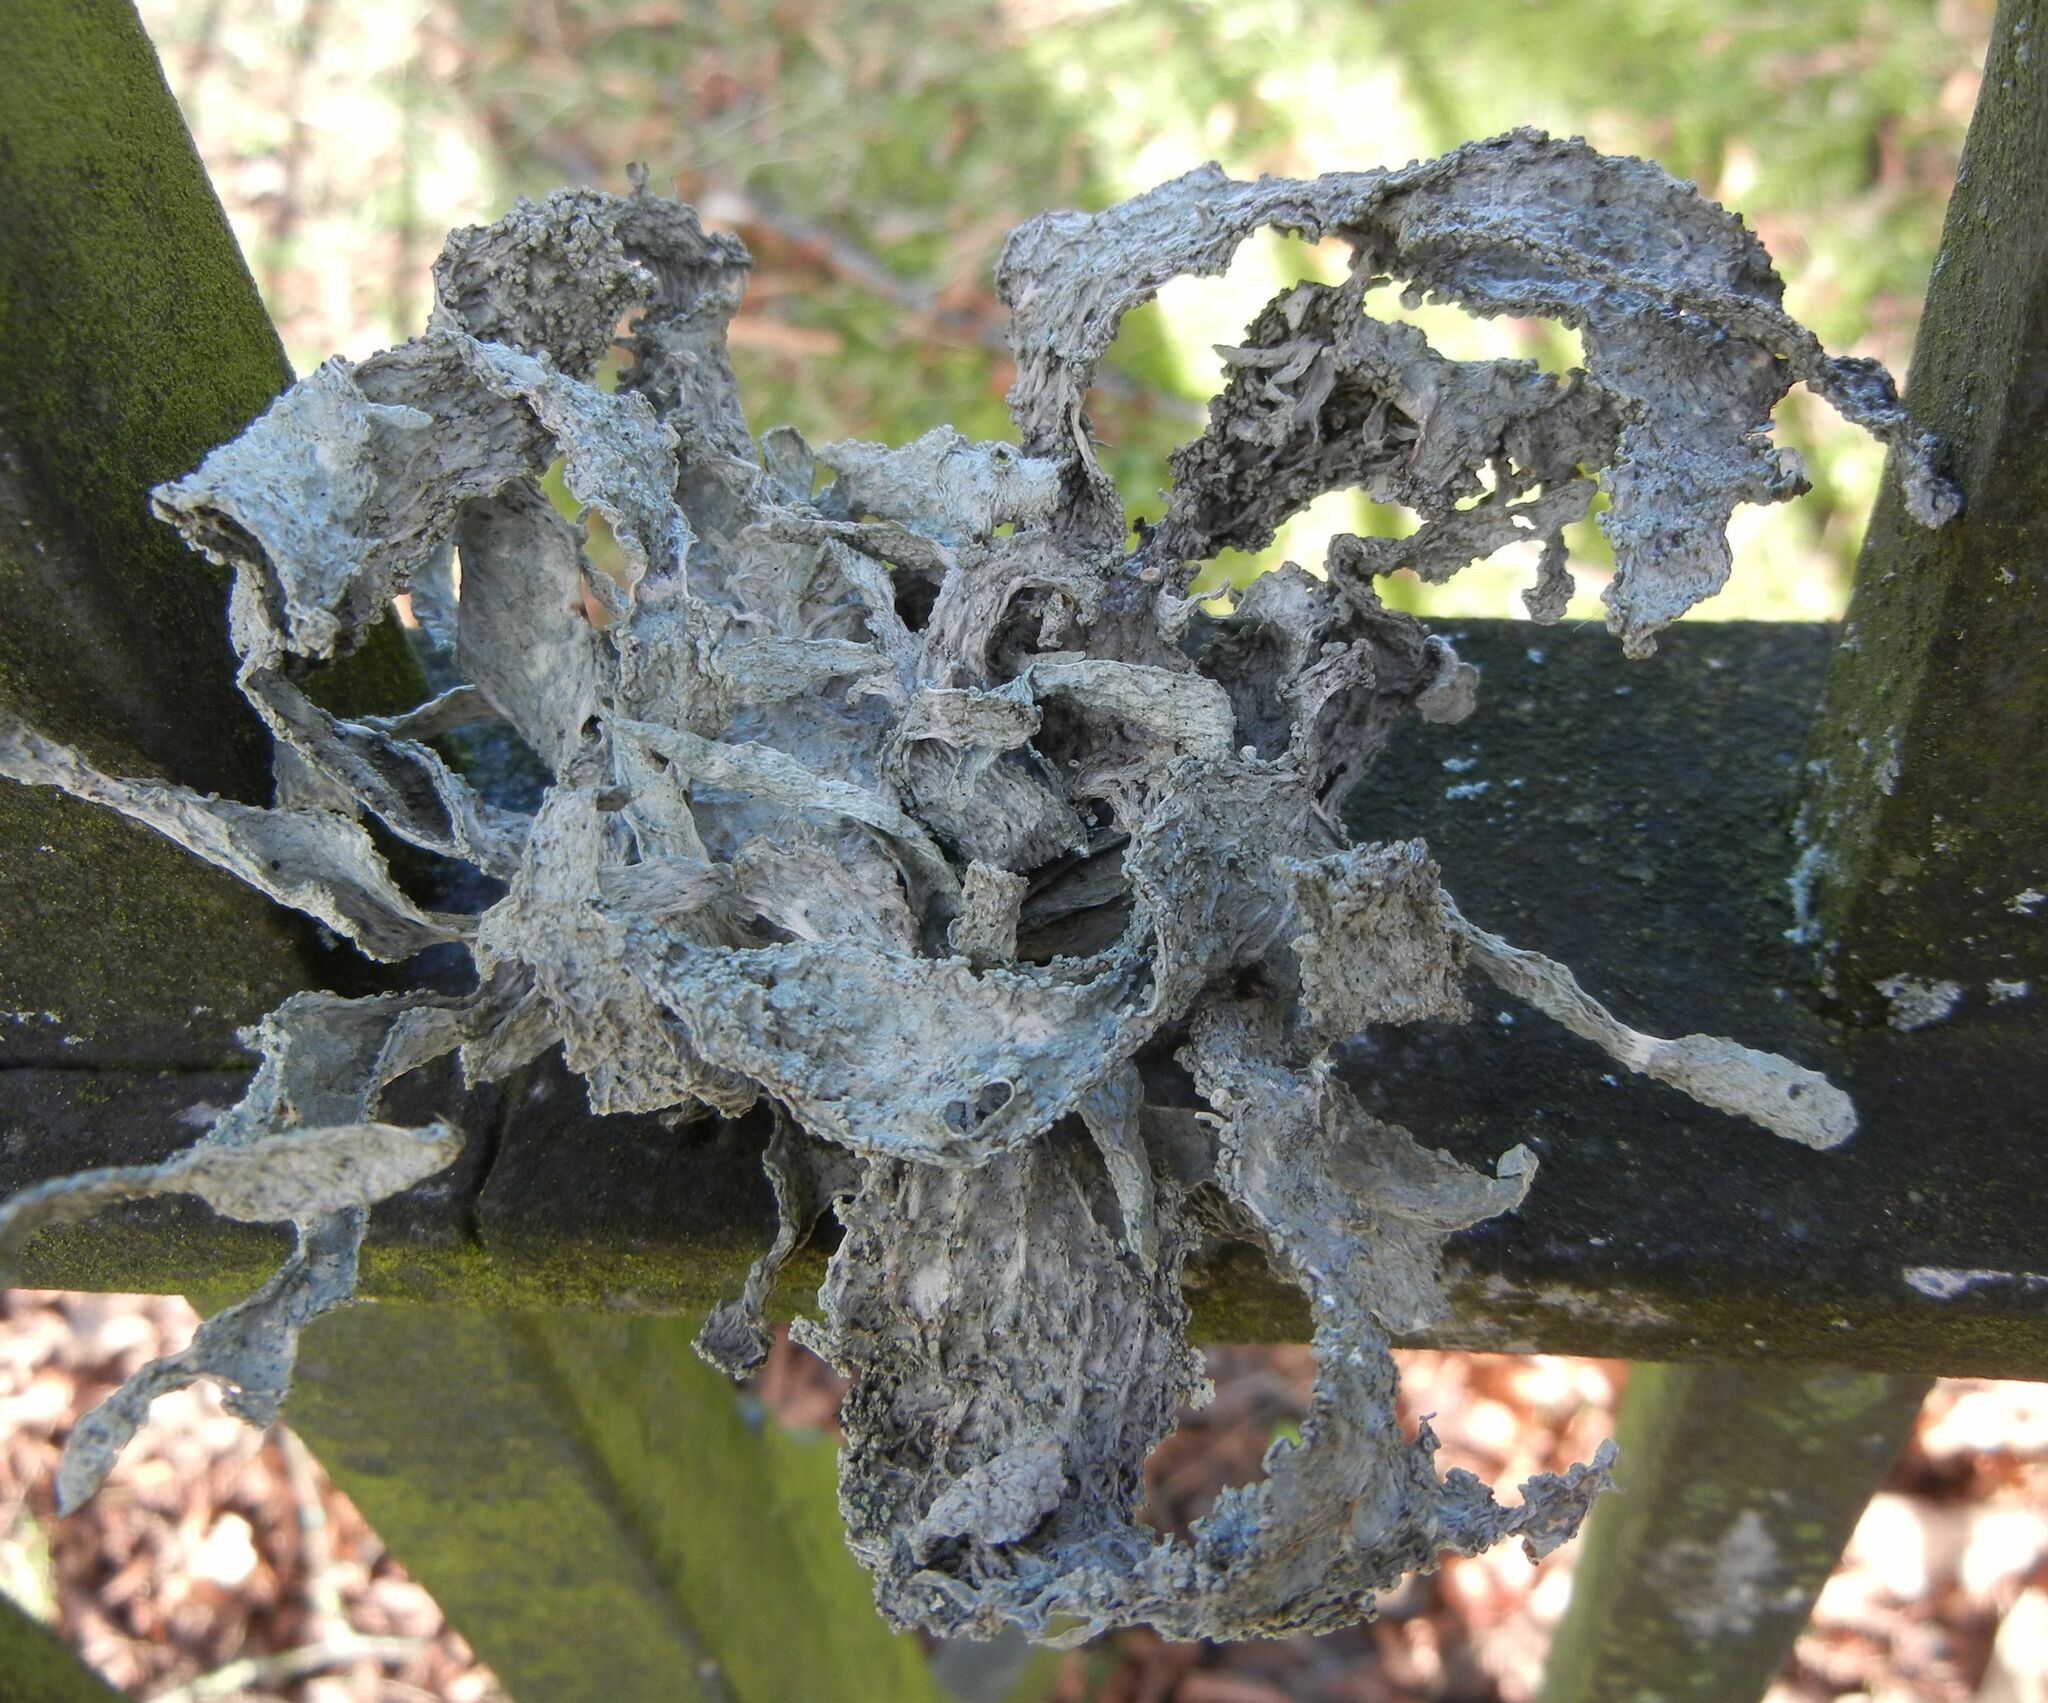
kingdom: Fungi
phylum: Ascomycota
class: Lecanoromycetes
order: Lecanorales
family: Ramalinaceae
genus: Ramalina
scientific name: Ramalina fraxinea
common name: Cartilage lichen
